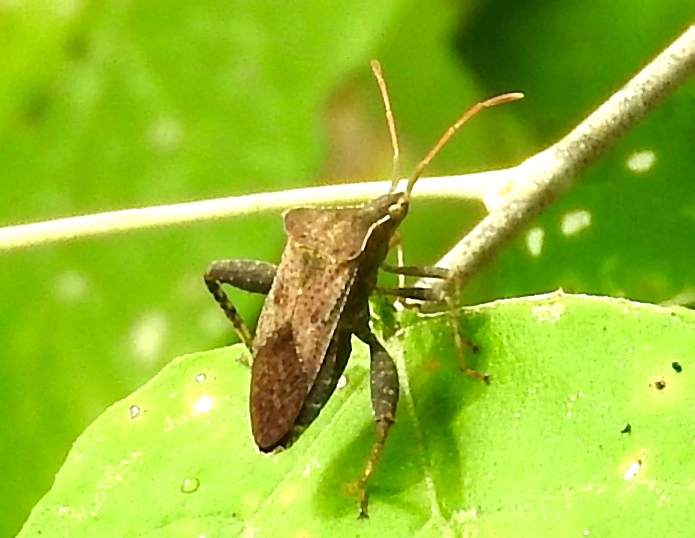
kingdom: Animalia
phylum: Arthropoda
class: Insecta
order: Hemiptera
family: Coreidae
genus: Mamurius
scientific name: Mamurius mopsus
